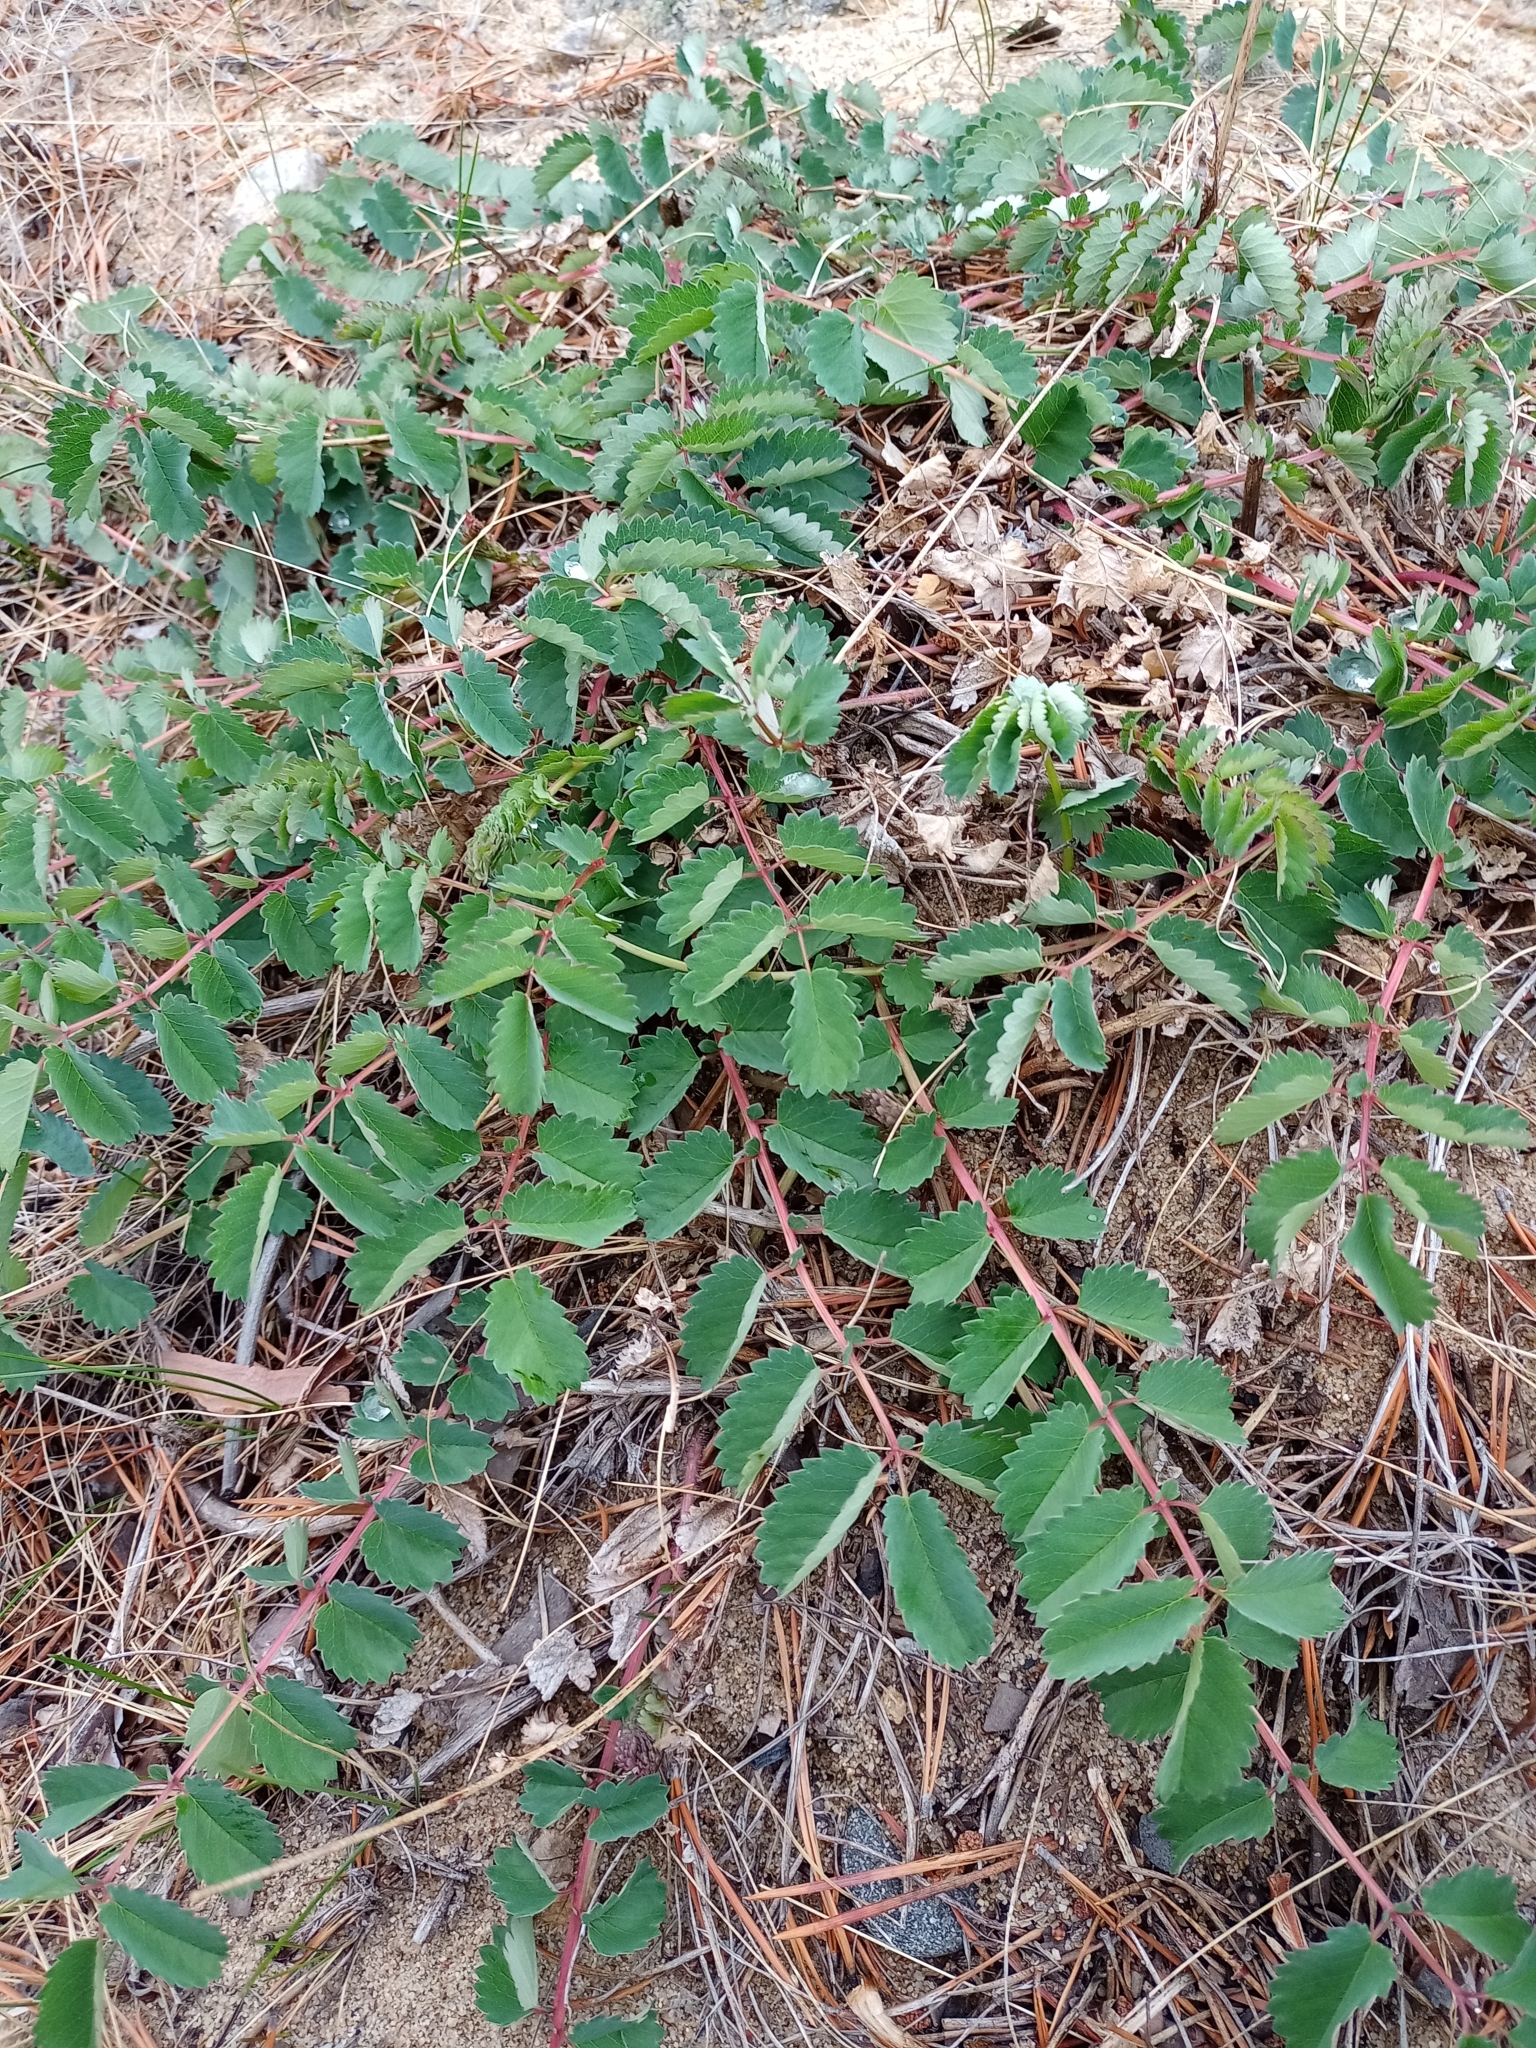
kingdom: Plantae
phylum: Tracheophyta
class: Magnoliopsida
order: Rosales
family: Rosaceae
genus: Sanguisorba
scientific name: Sanguisorba officinalis
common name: Great burnet
